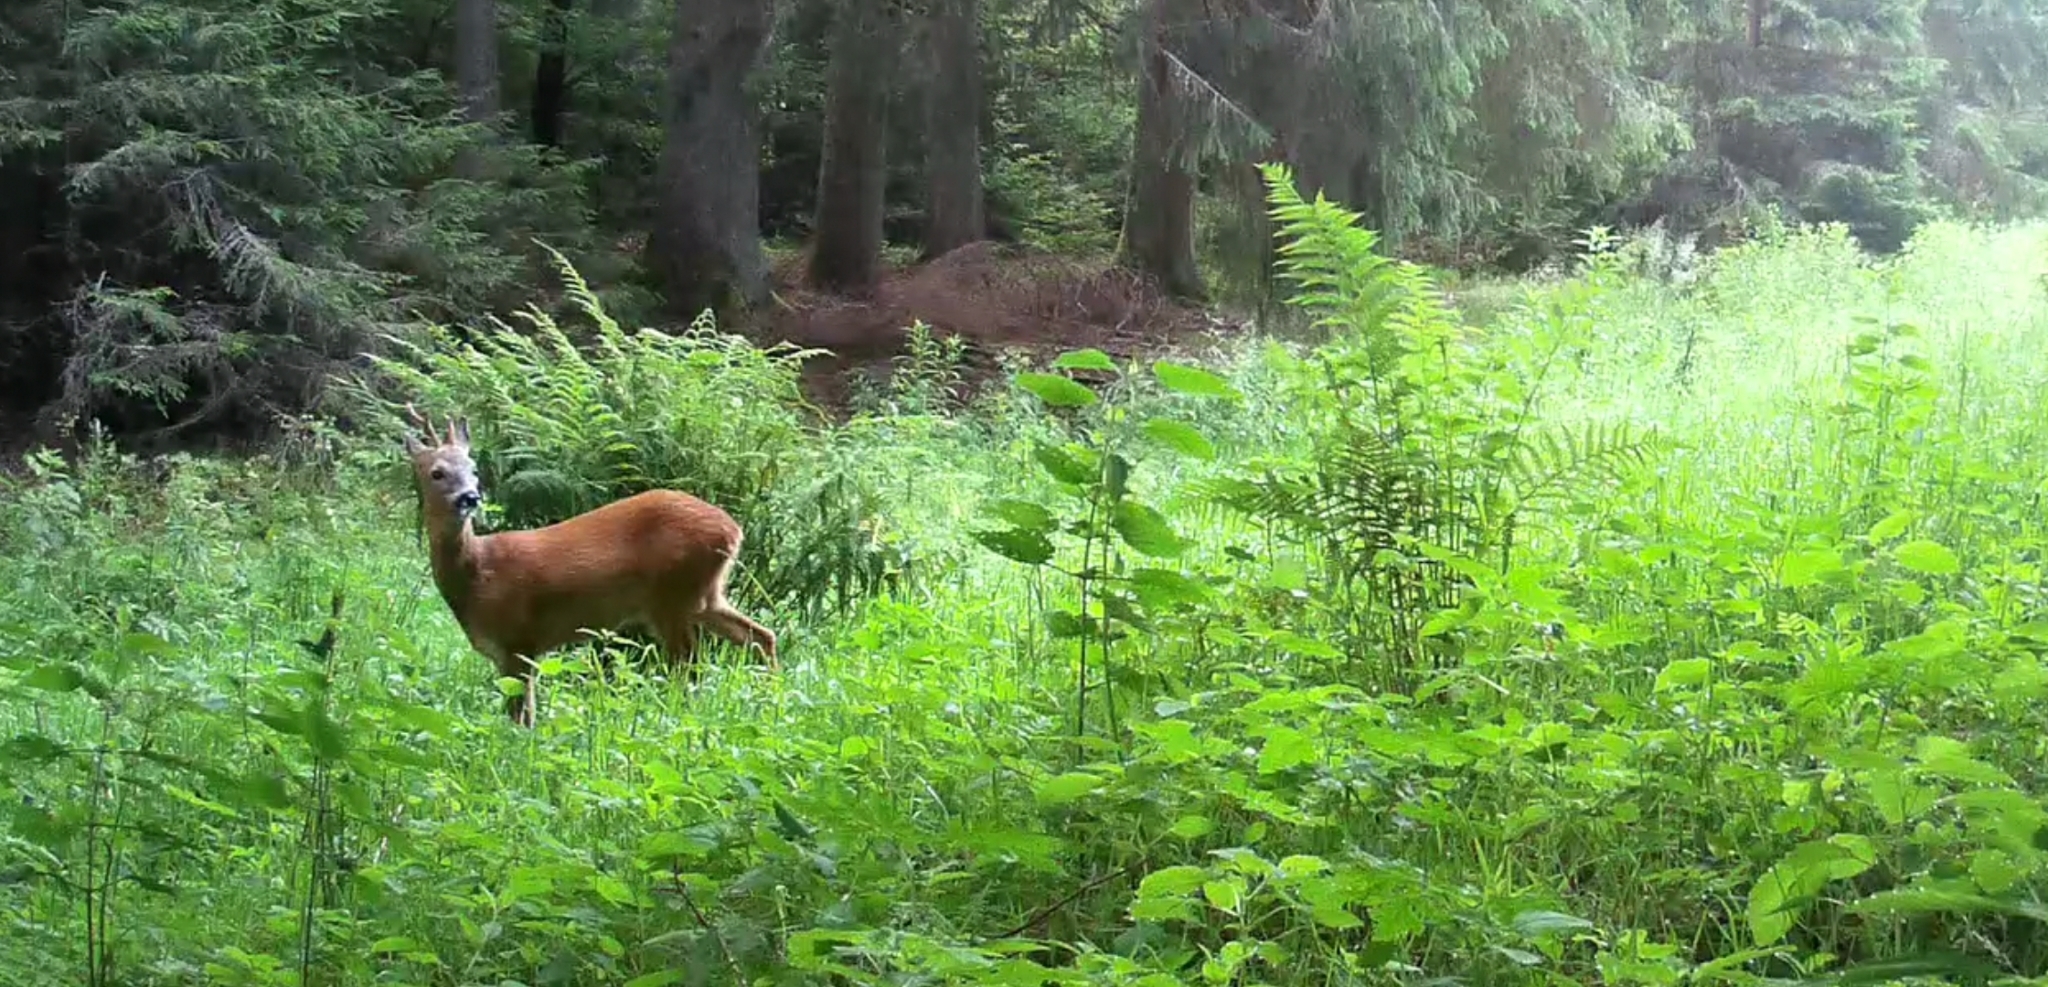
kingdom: Animalia
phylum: Chordata
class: Mammalia
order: Artiodactyla
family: Cervidae
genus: Capreolus
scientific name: Capreolus capreolus
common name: Western roe deer
